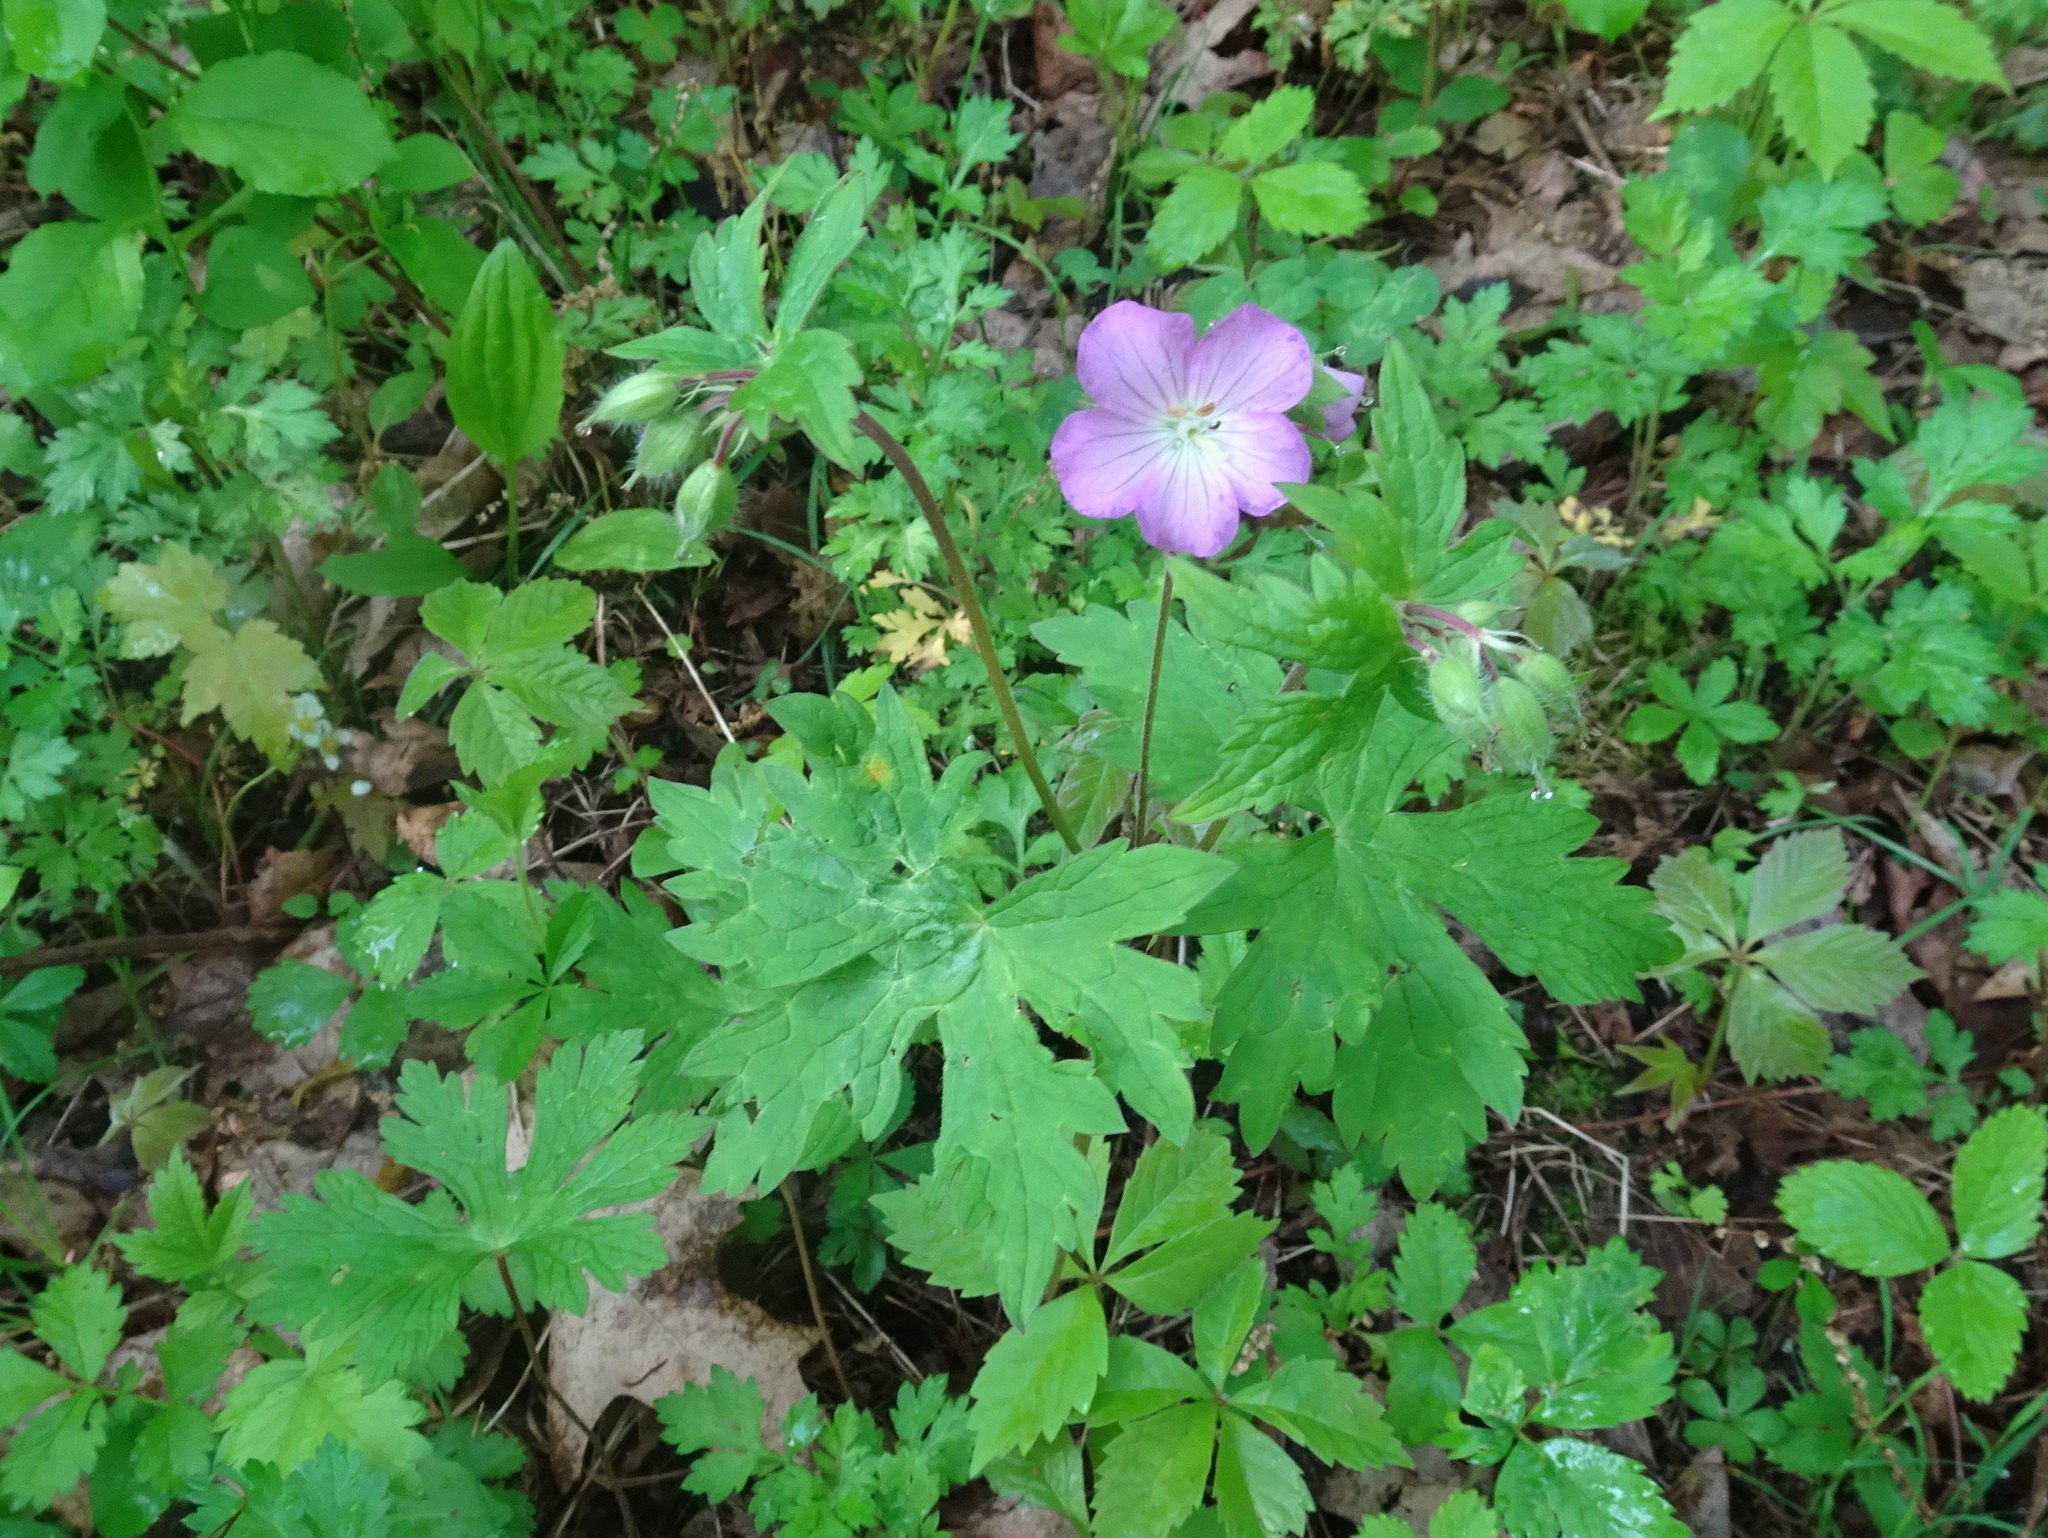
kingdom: Plantae
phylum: Tracheophyta
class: Magnoliopsida
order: Geraniales
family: Geraniaceae
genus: Geranium
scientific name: Geranium maculatum
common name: Spotted geranium
